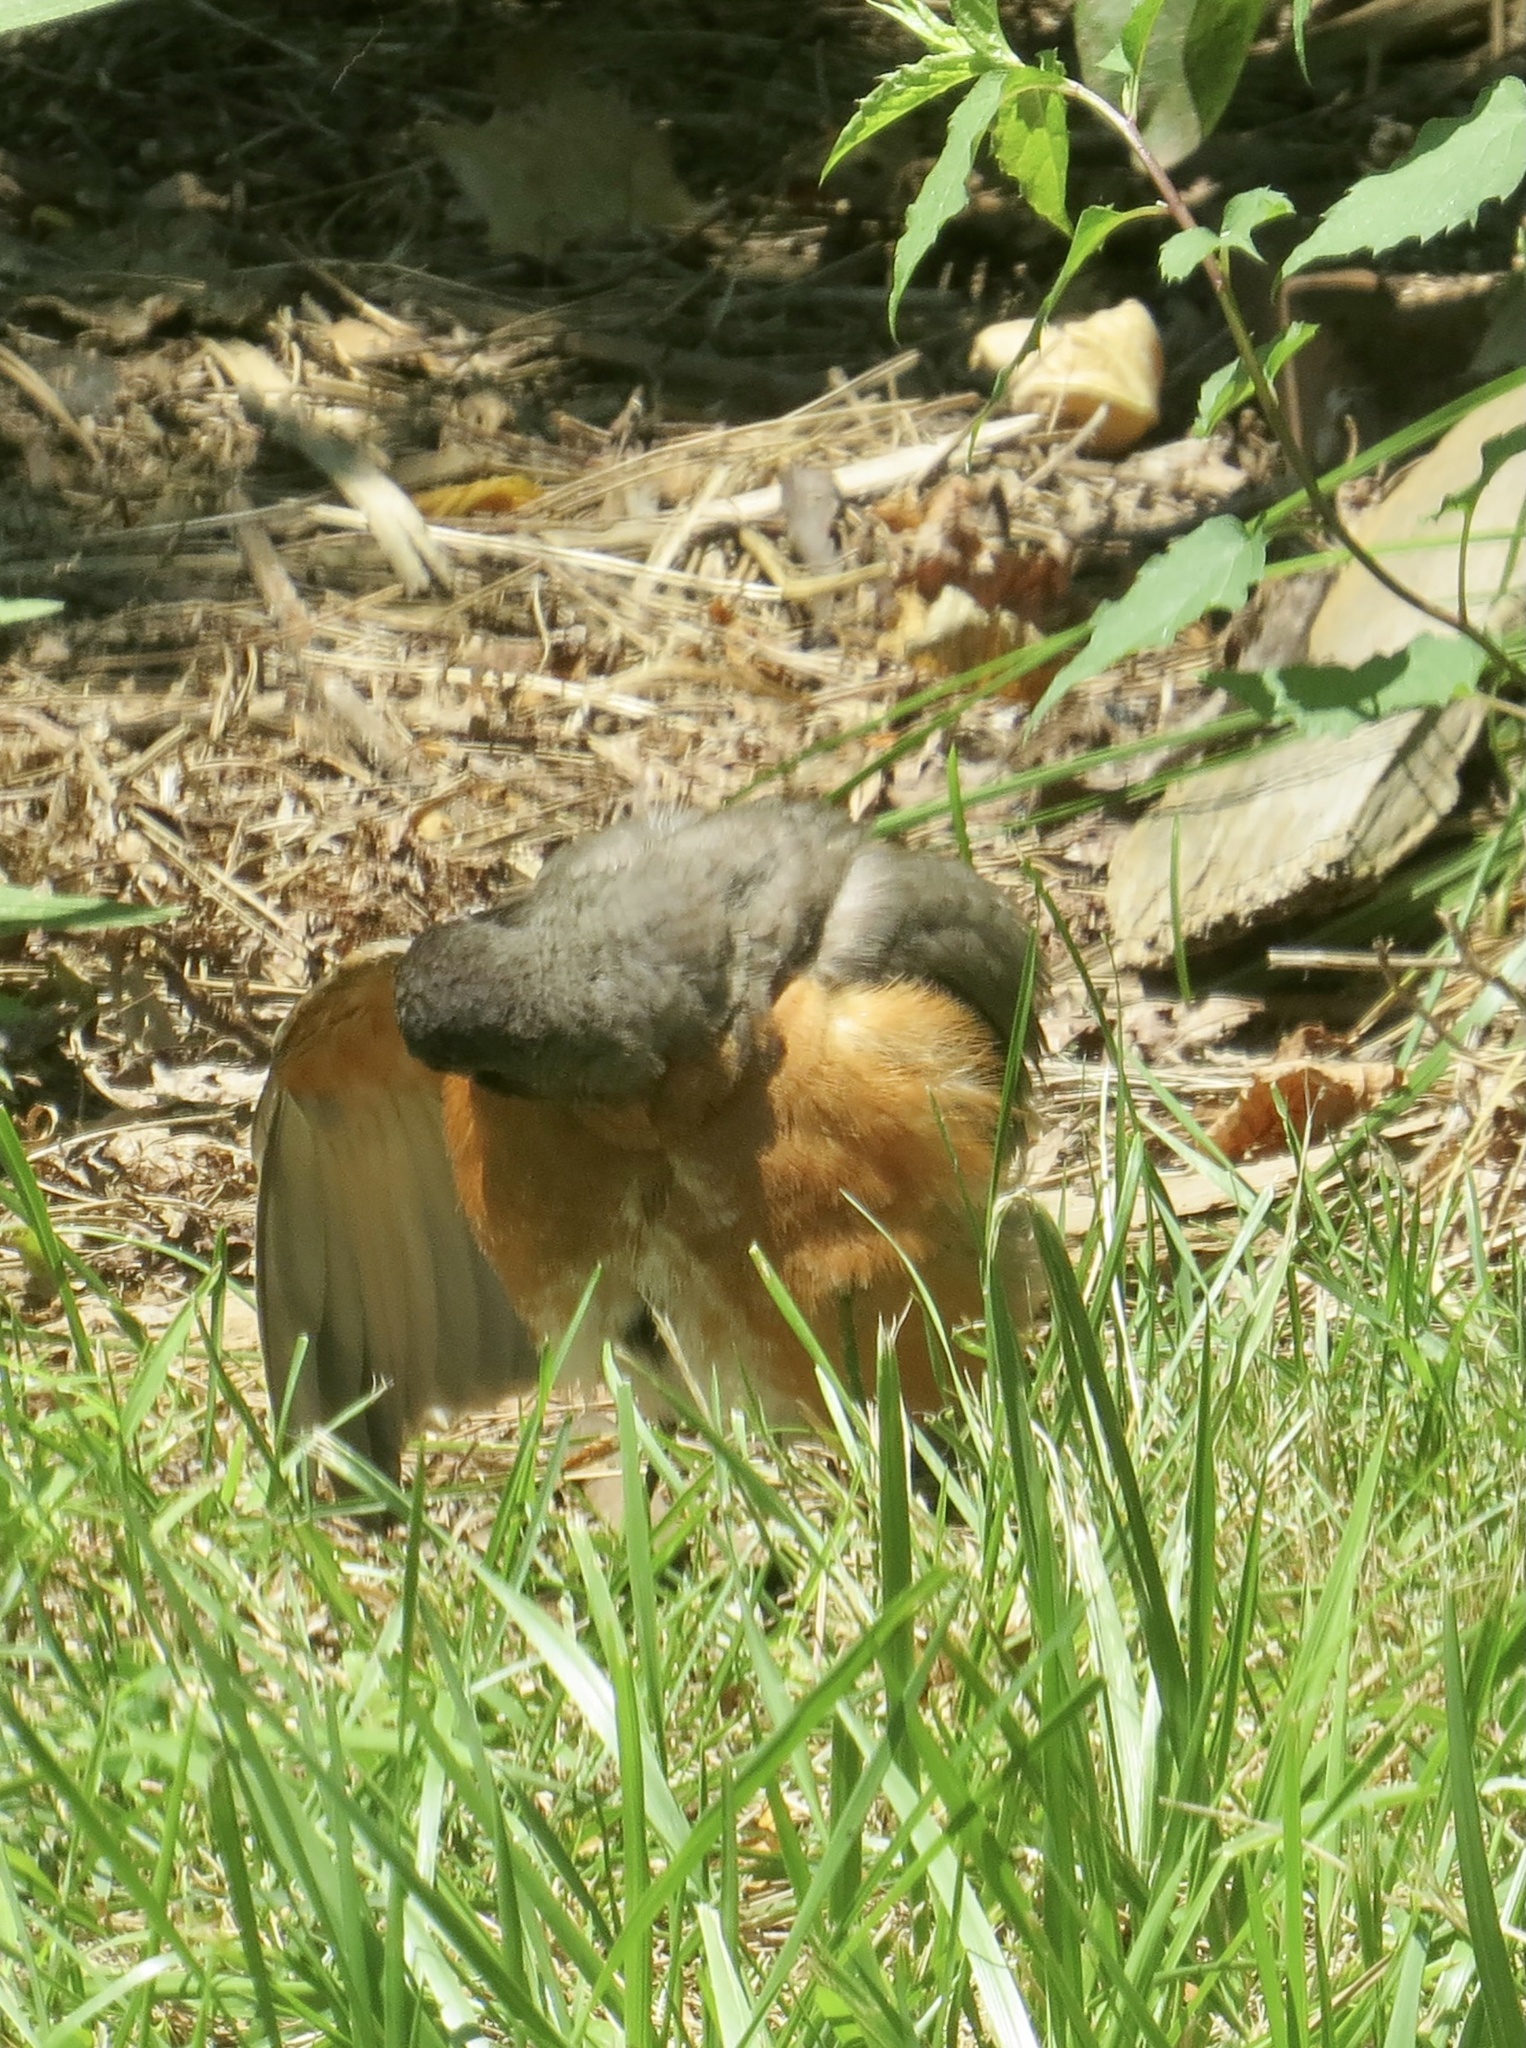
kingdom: Animalia
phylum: Chordata
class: Aves
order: Passeriformes
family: Turdidae
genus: Turdus
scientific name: Turdus migratorius
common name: American robin
